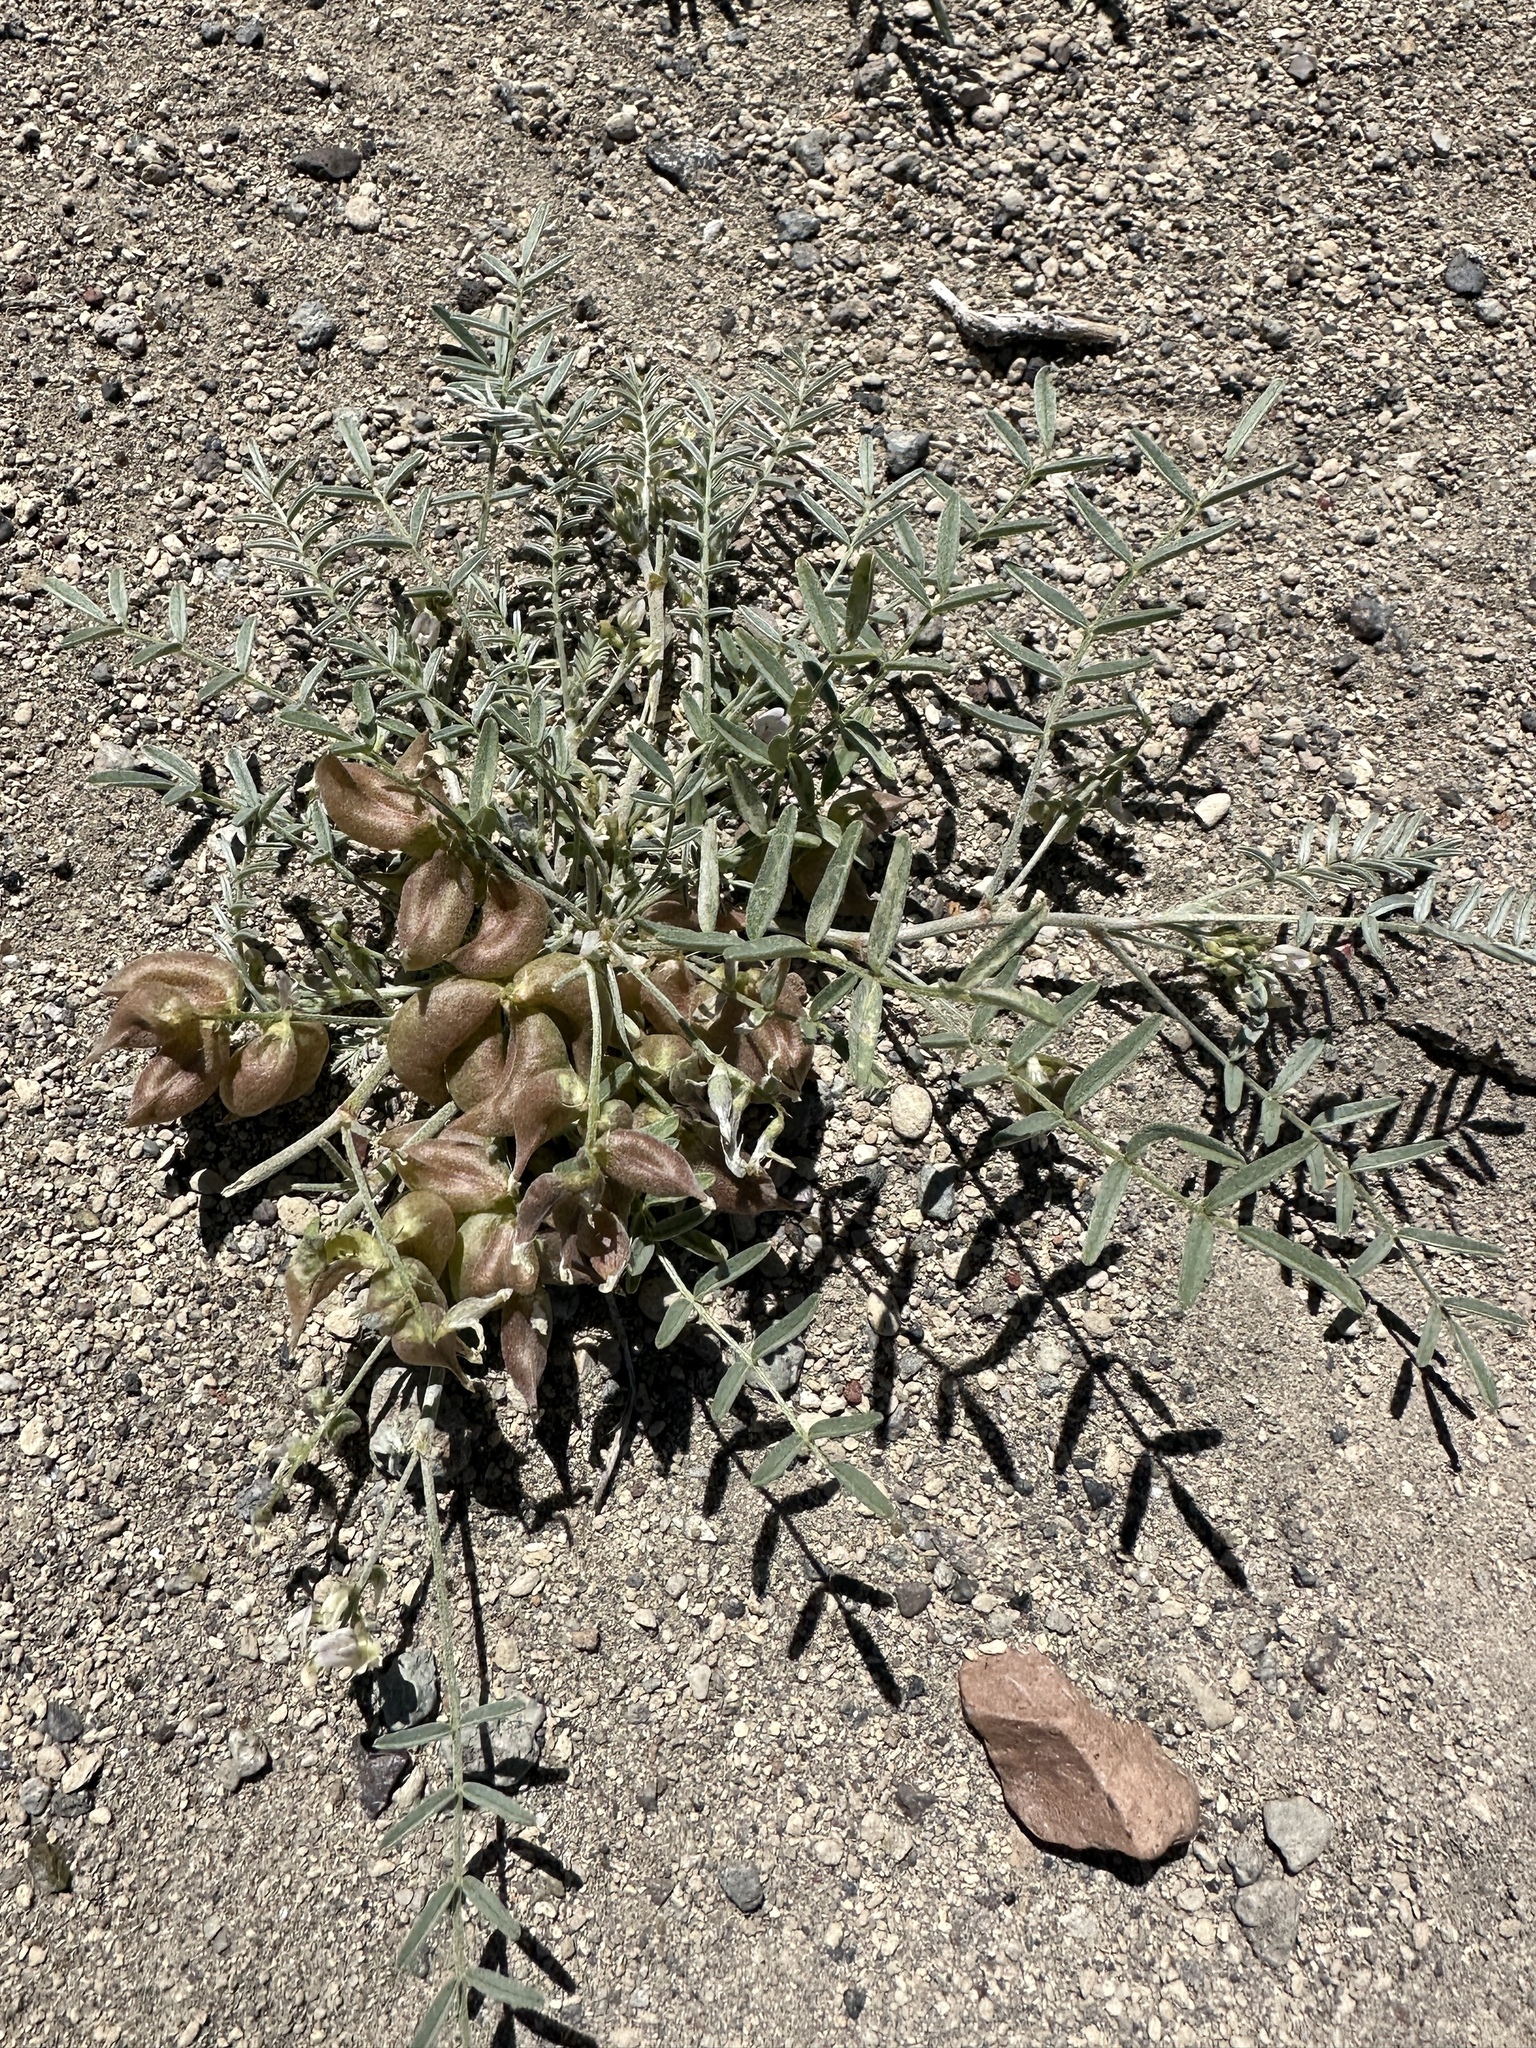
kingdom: Plantae
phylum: Tracheophyta
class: Magnoliopsida
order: Fabales
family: Fabaceae
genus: Astragalus
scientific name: Astragalus geyeri
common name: Geyer's milkvetch
